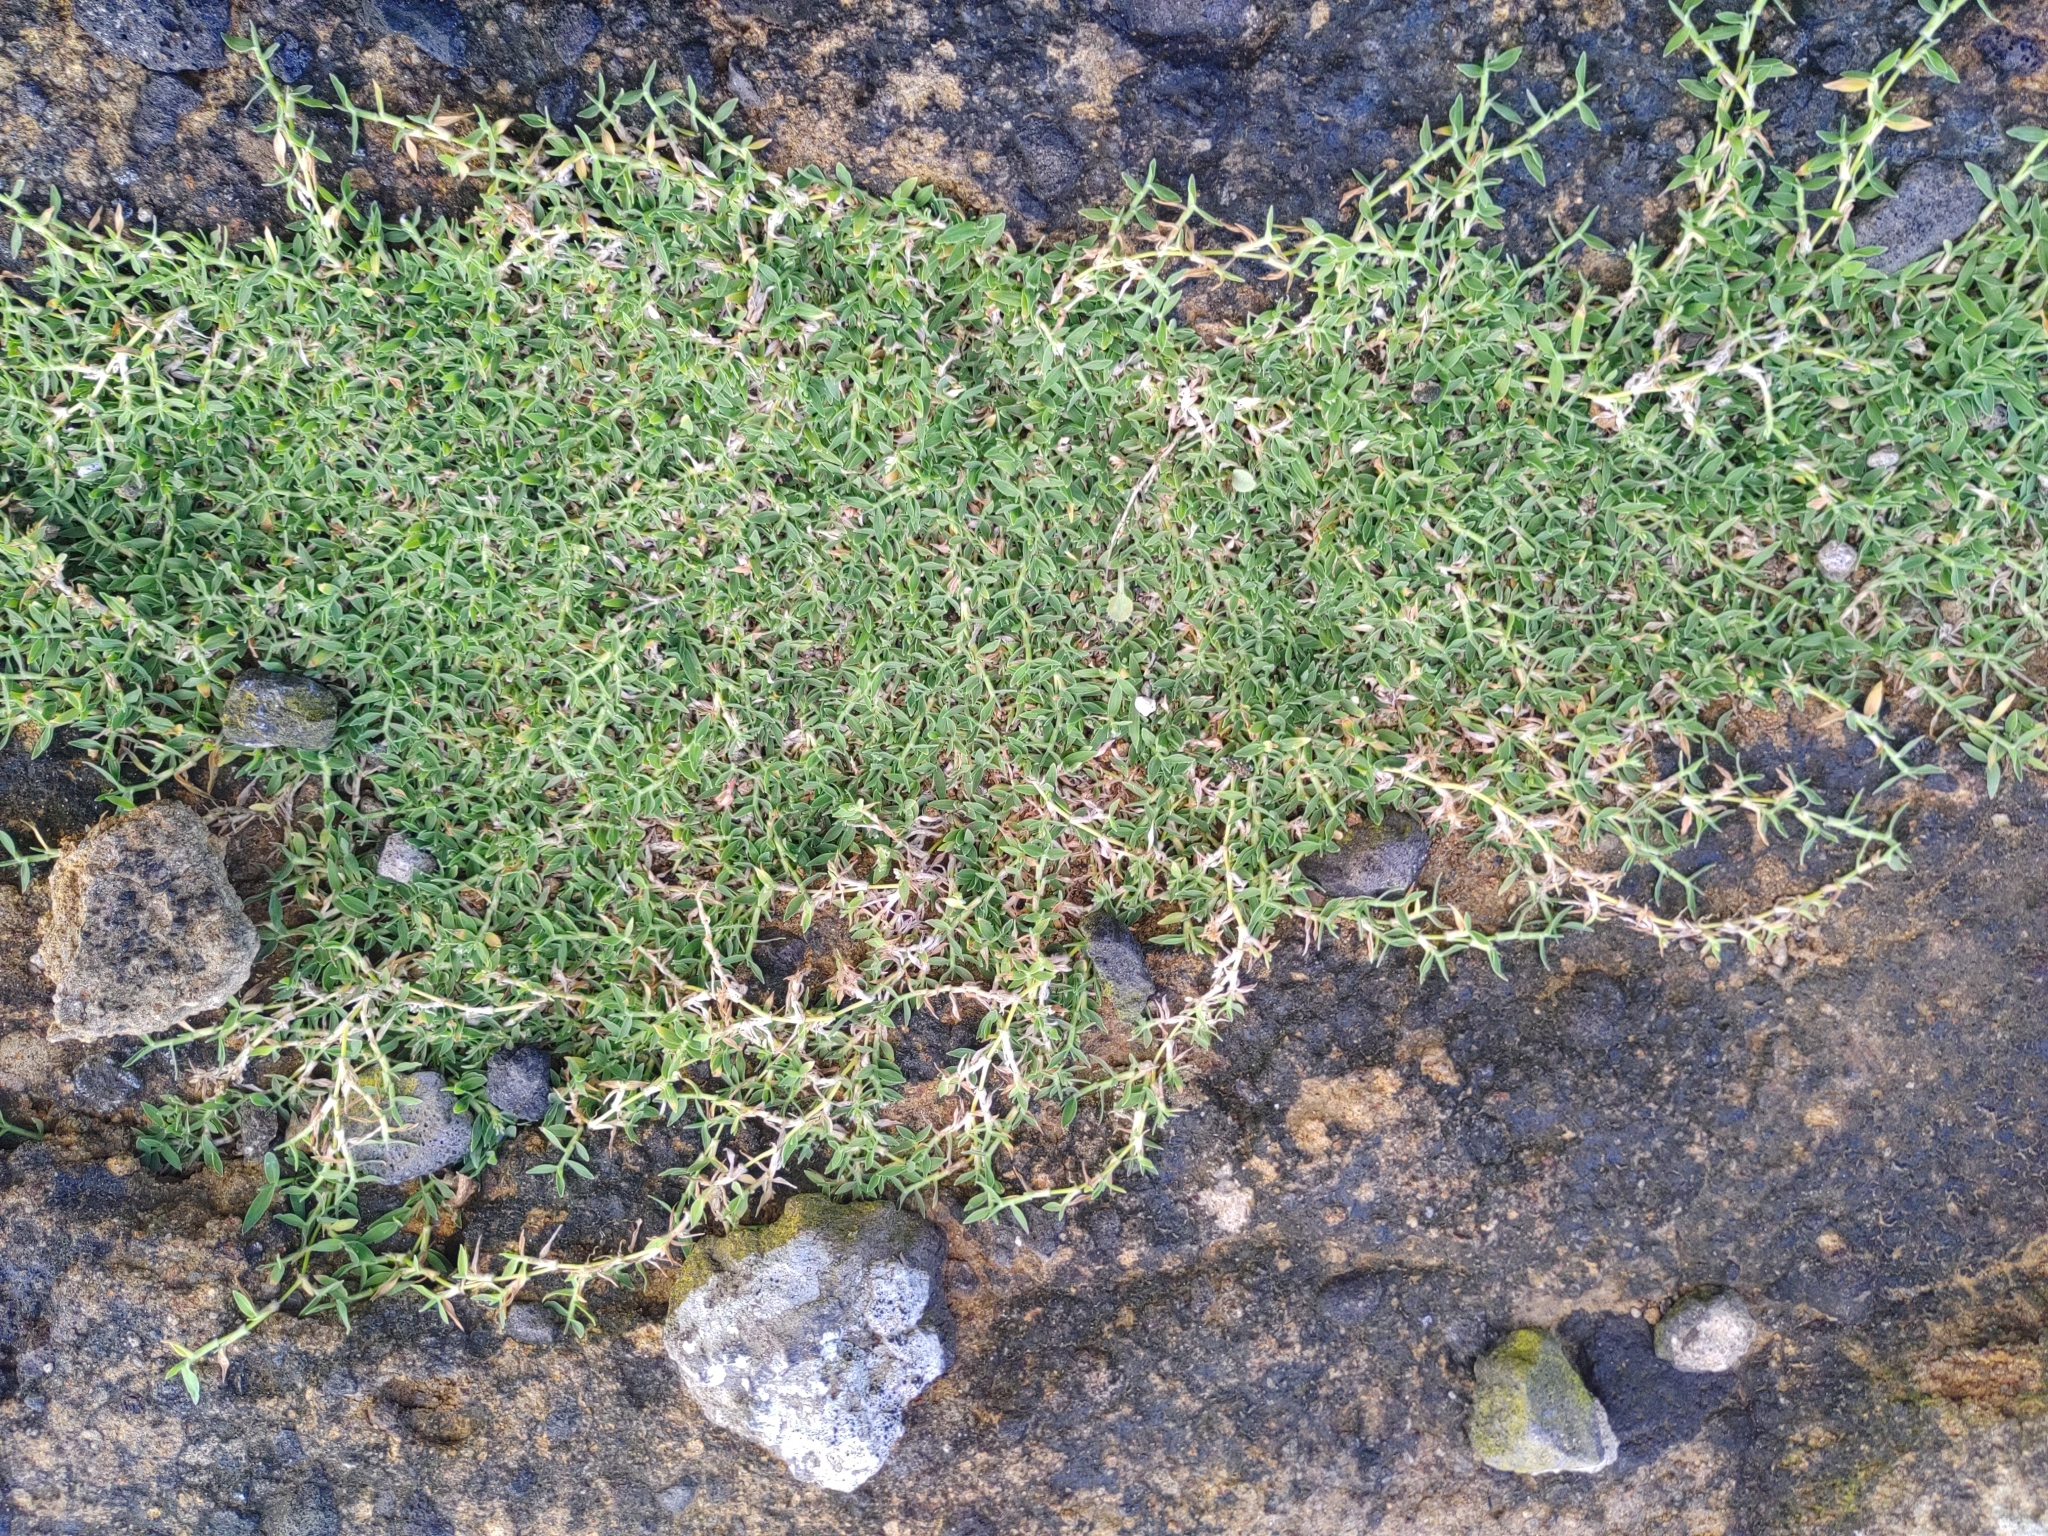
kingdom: Plantae
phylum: Tracheophyta
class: Liliopsida
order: Poales
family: Poaceae
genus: Echinochloa
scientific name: Echinochloa
